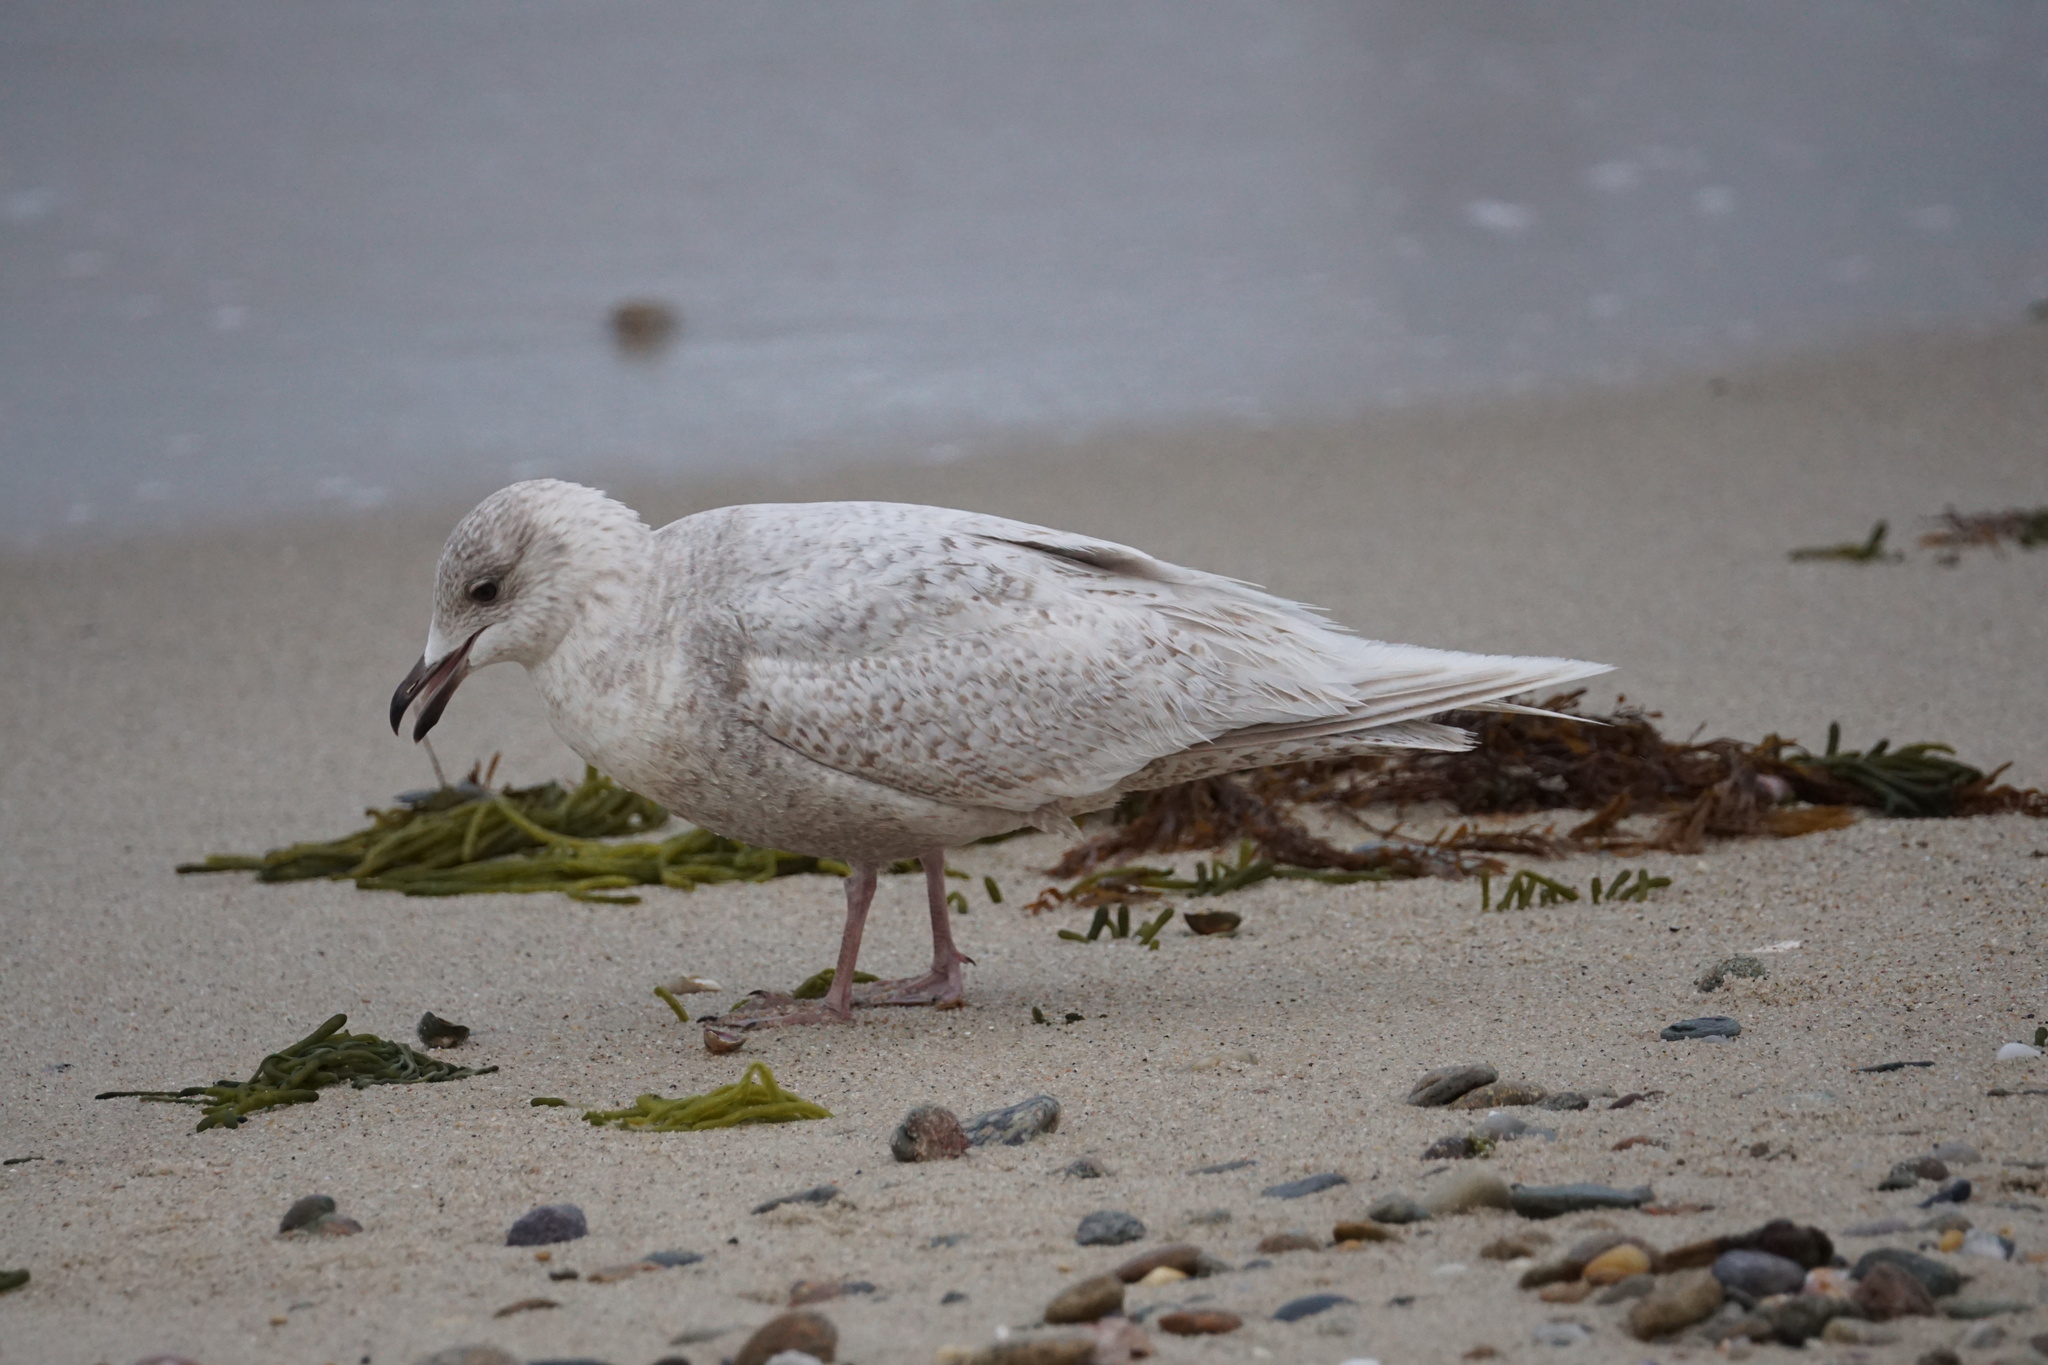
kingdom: Animalia
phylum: Chordata
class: Aves
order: Charadriiformes
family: Laridae
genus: Larus
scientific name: Larus glaucoides
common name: Iceland gull
